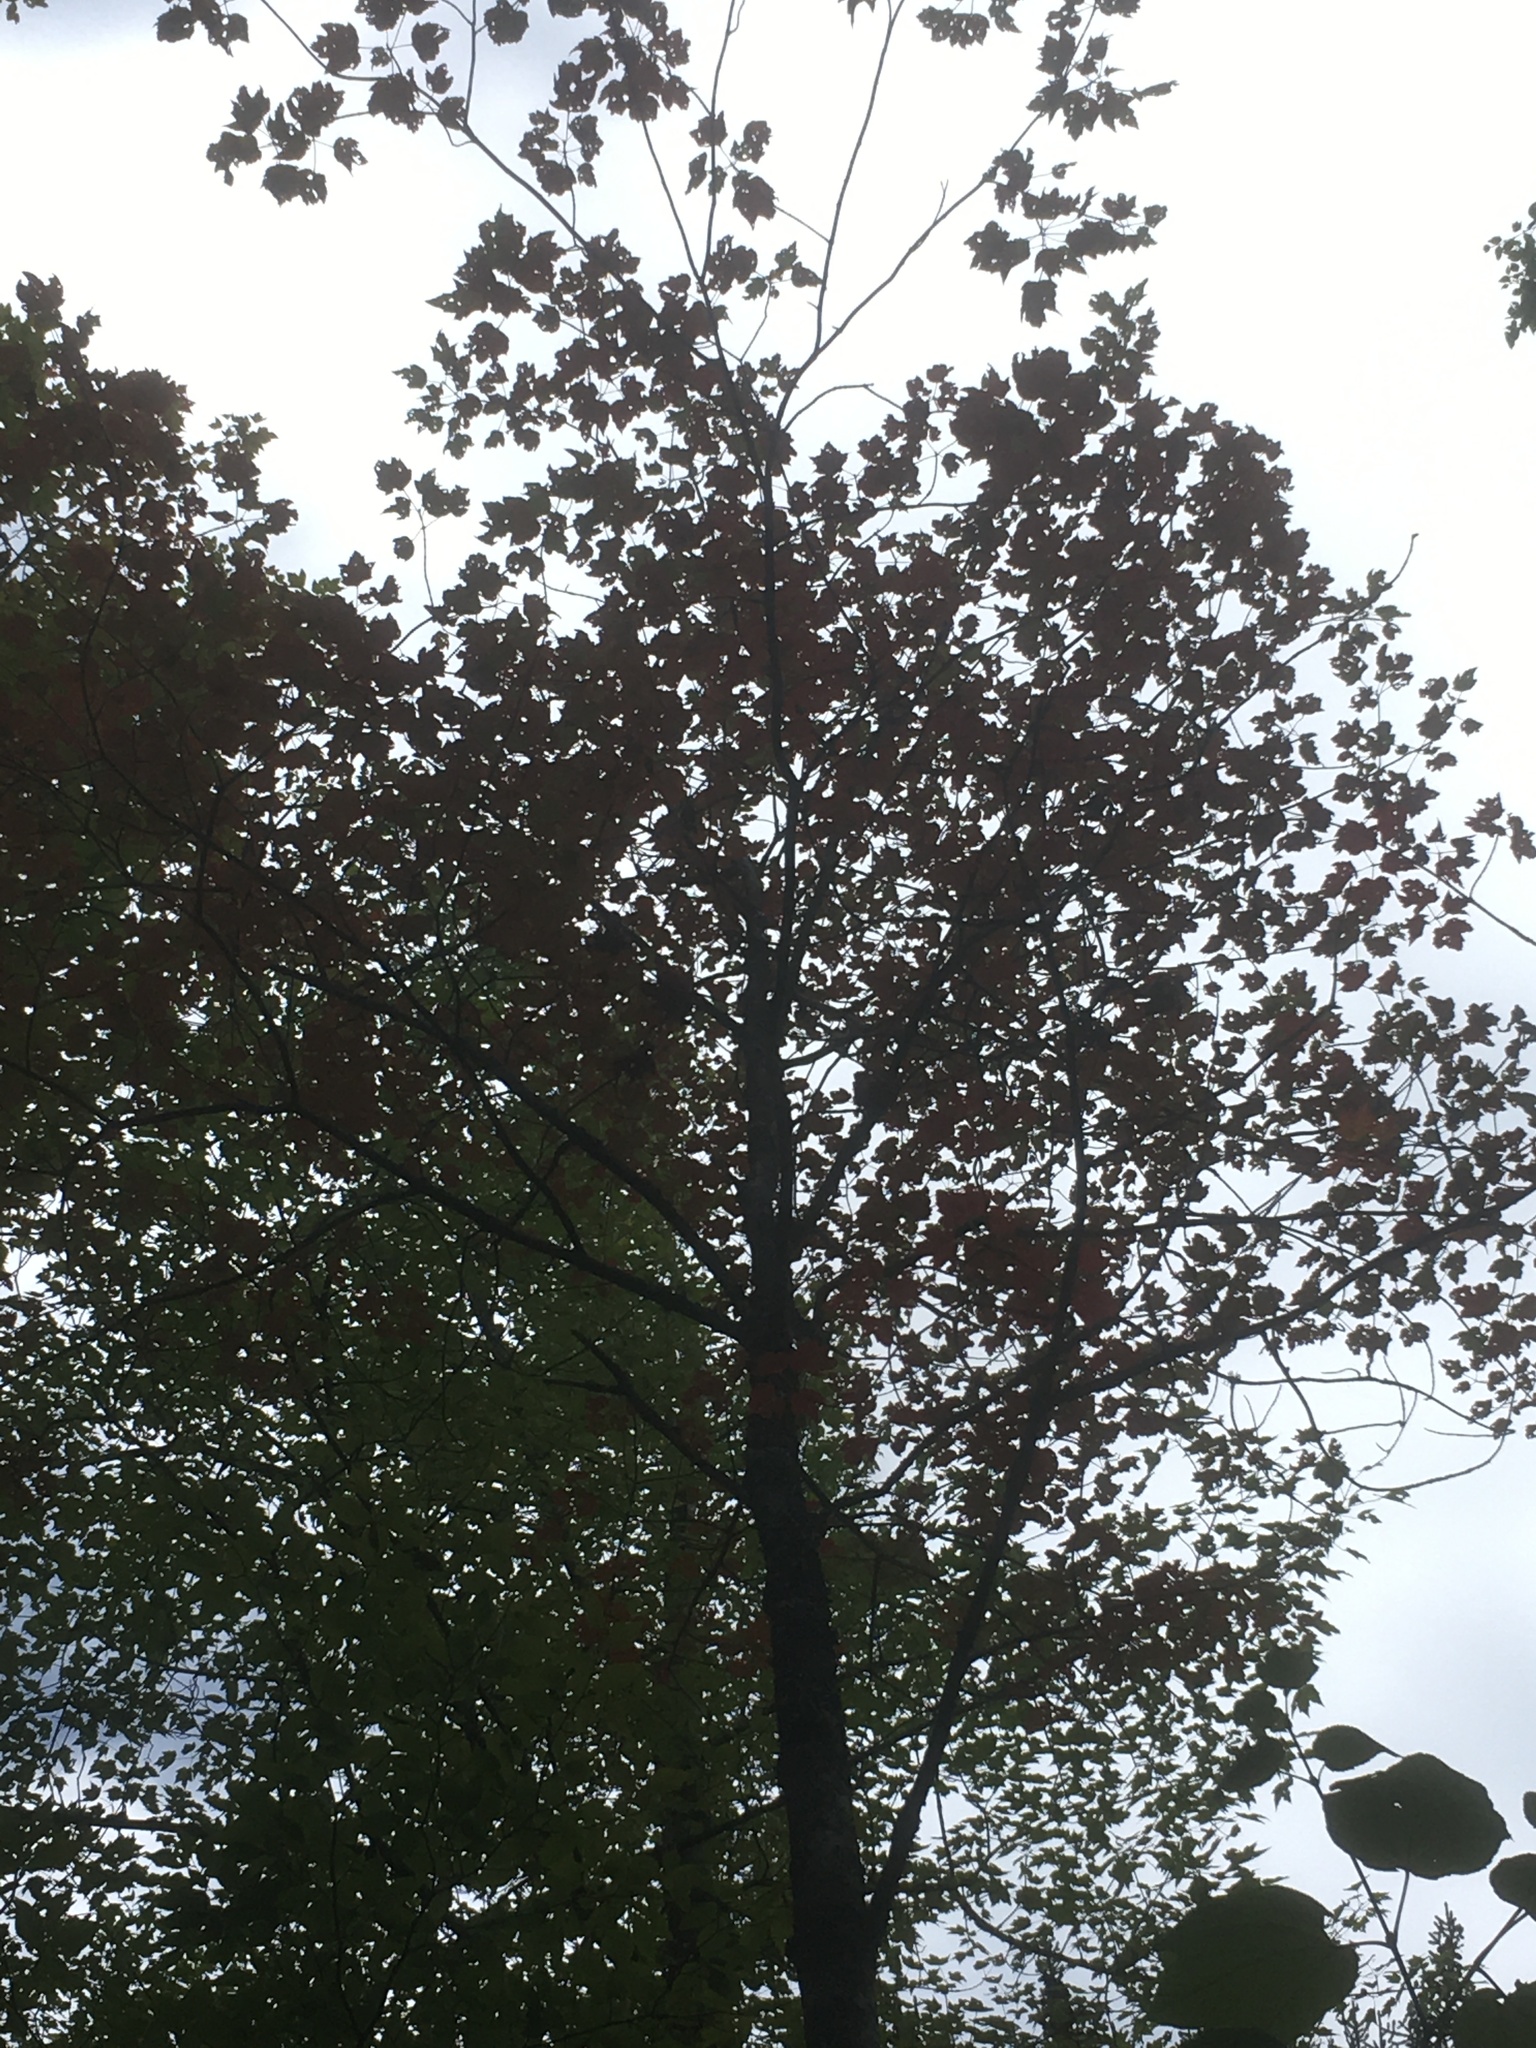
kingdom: Plantae
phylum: Tracheophyta
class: Magnoliopsida
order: Sapindales
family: Sapindaceae
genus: Acer
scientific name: Acer rubrum
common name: Red maple
